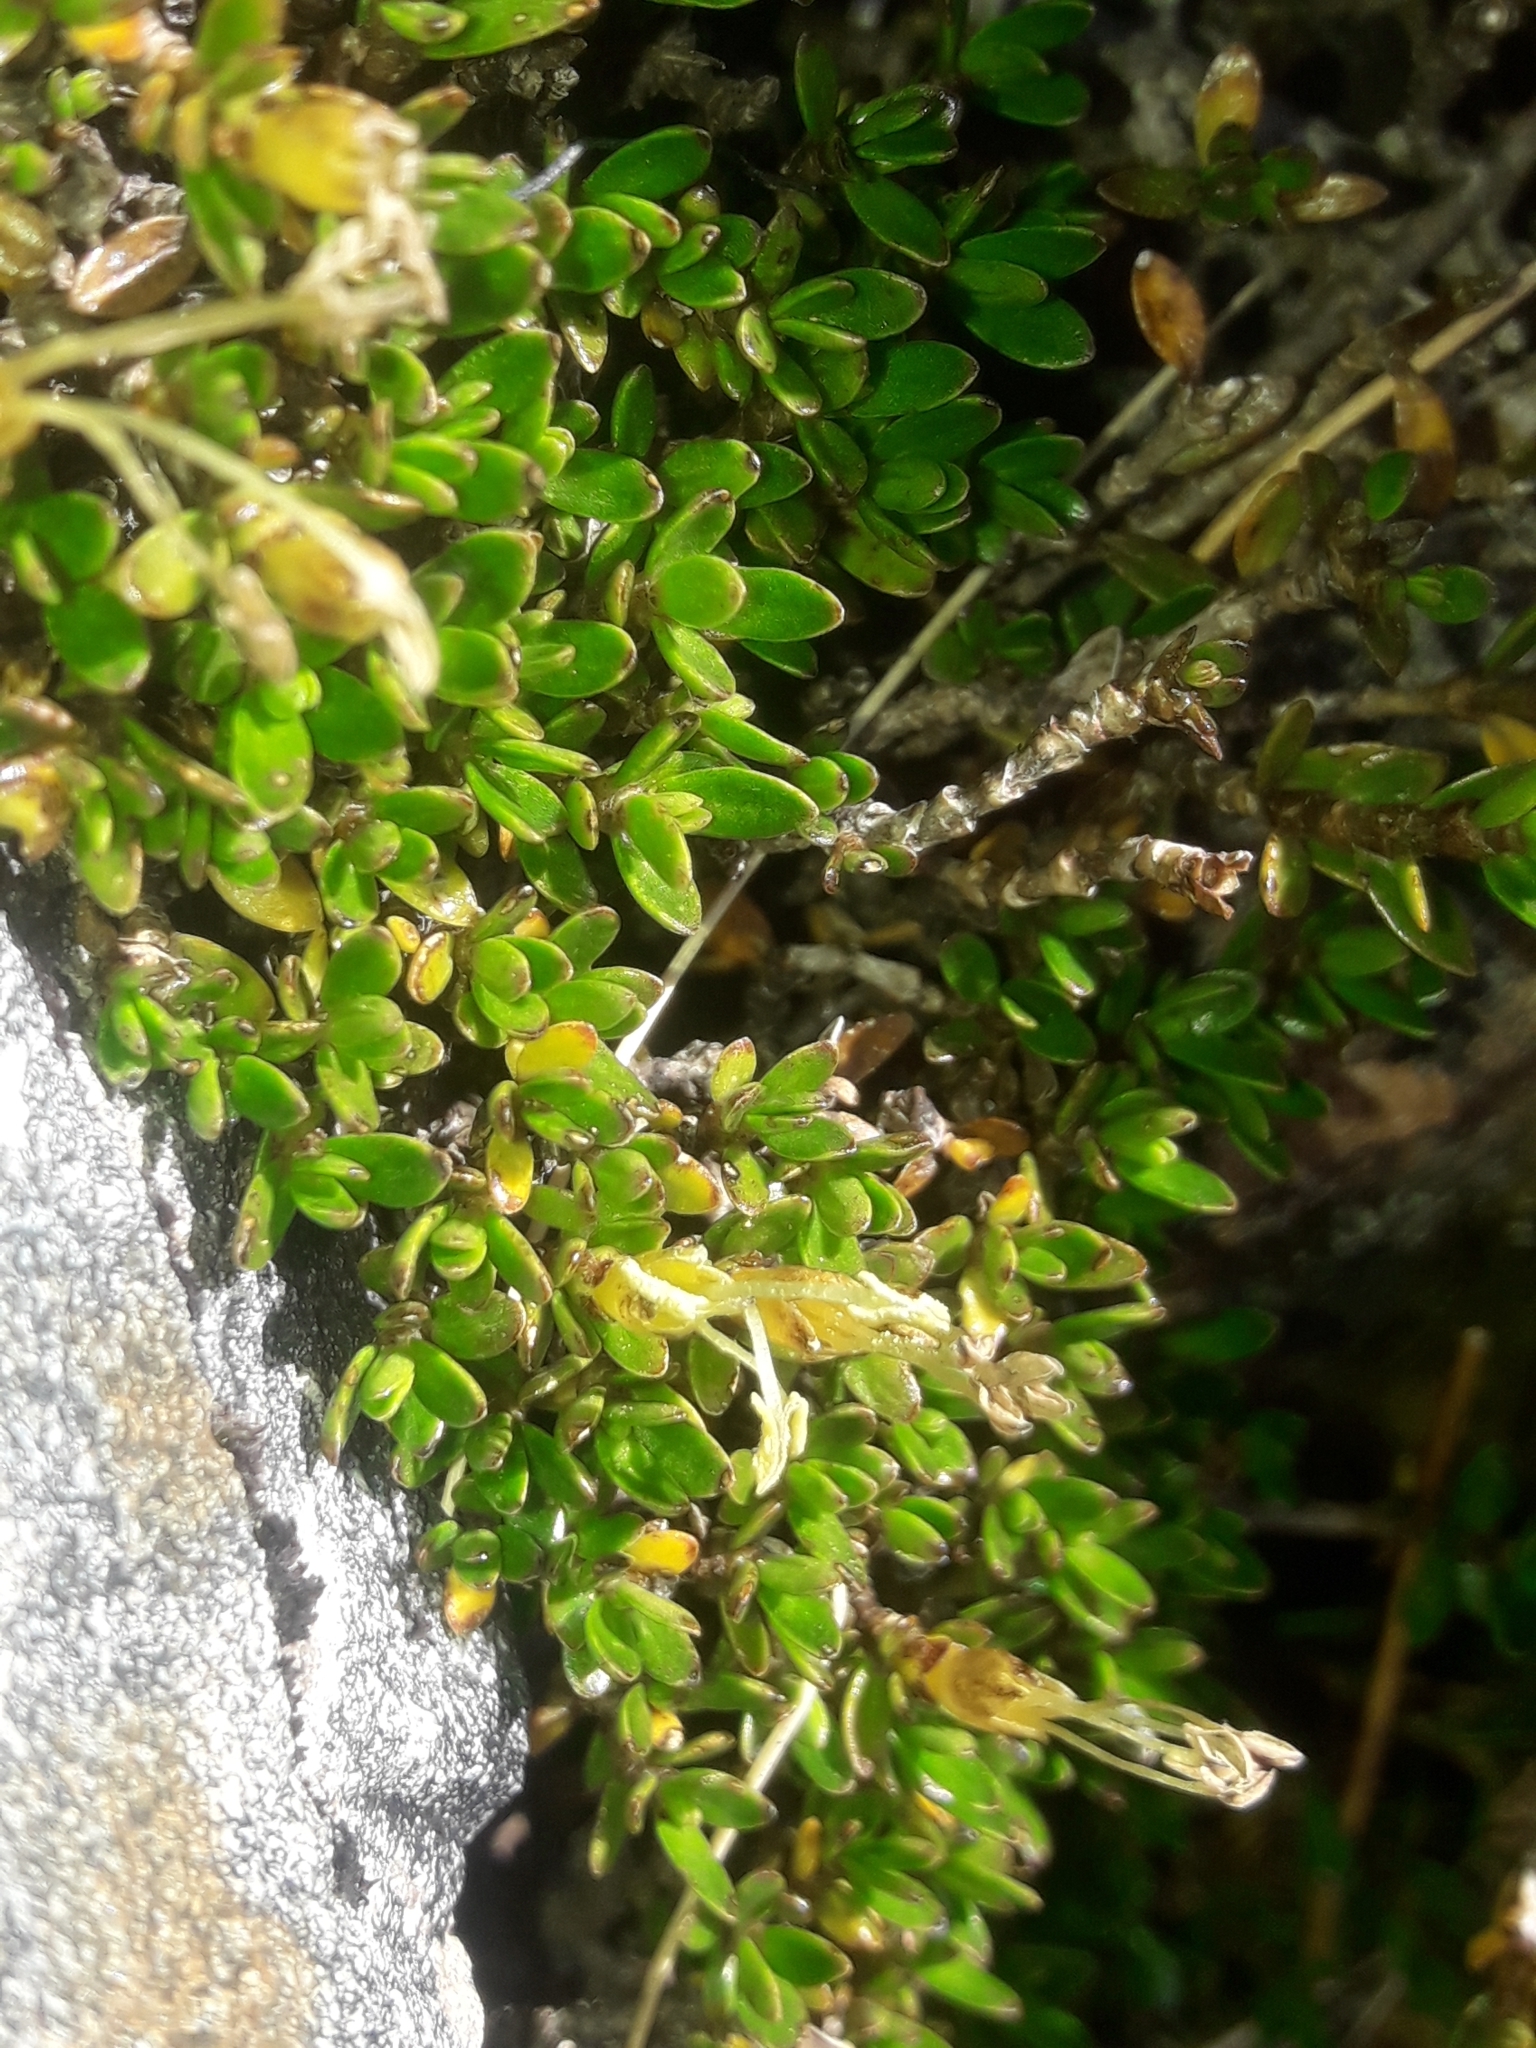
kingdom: Plantae
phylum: Tracheophyta
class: Magnoliopsida
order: Gentianales
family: Rubiaceae
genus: Coprosma
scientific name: Coprosma perpusilla
